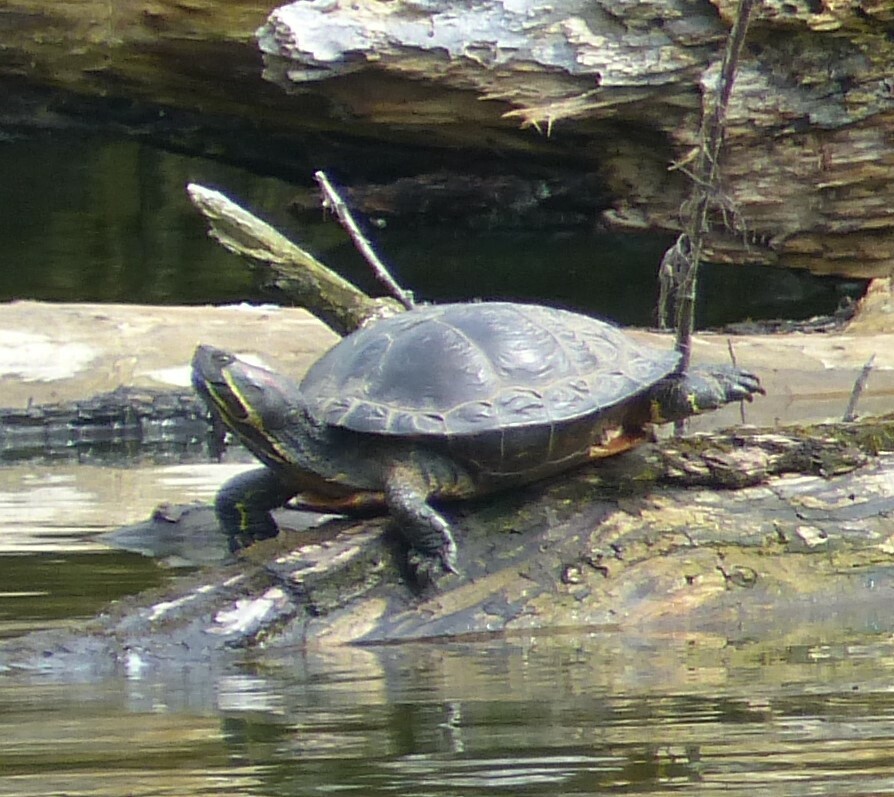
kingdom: Animalia
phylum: Chordata
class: Testudines
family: Emydidae
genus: Trachemys
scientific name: Trachemys scripta
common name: Slider
